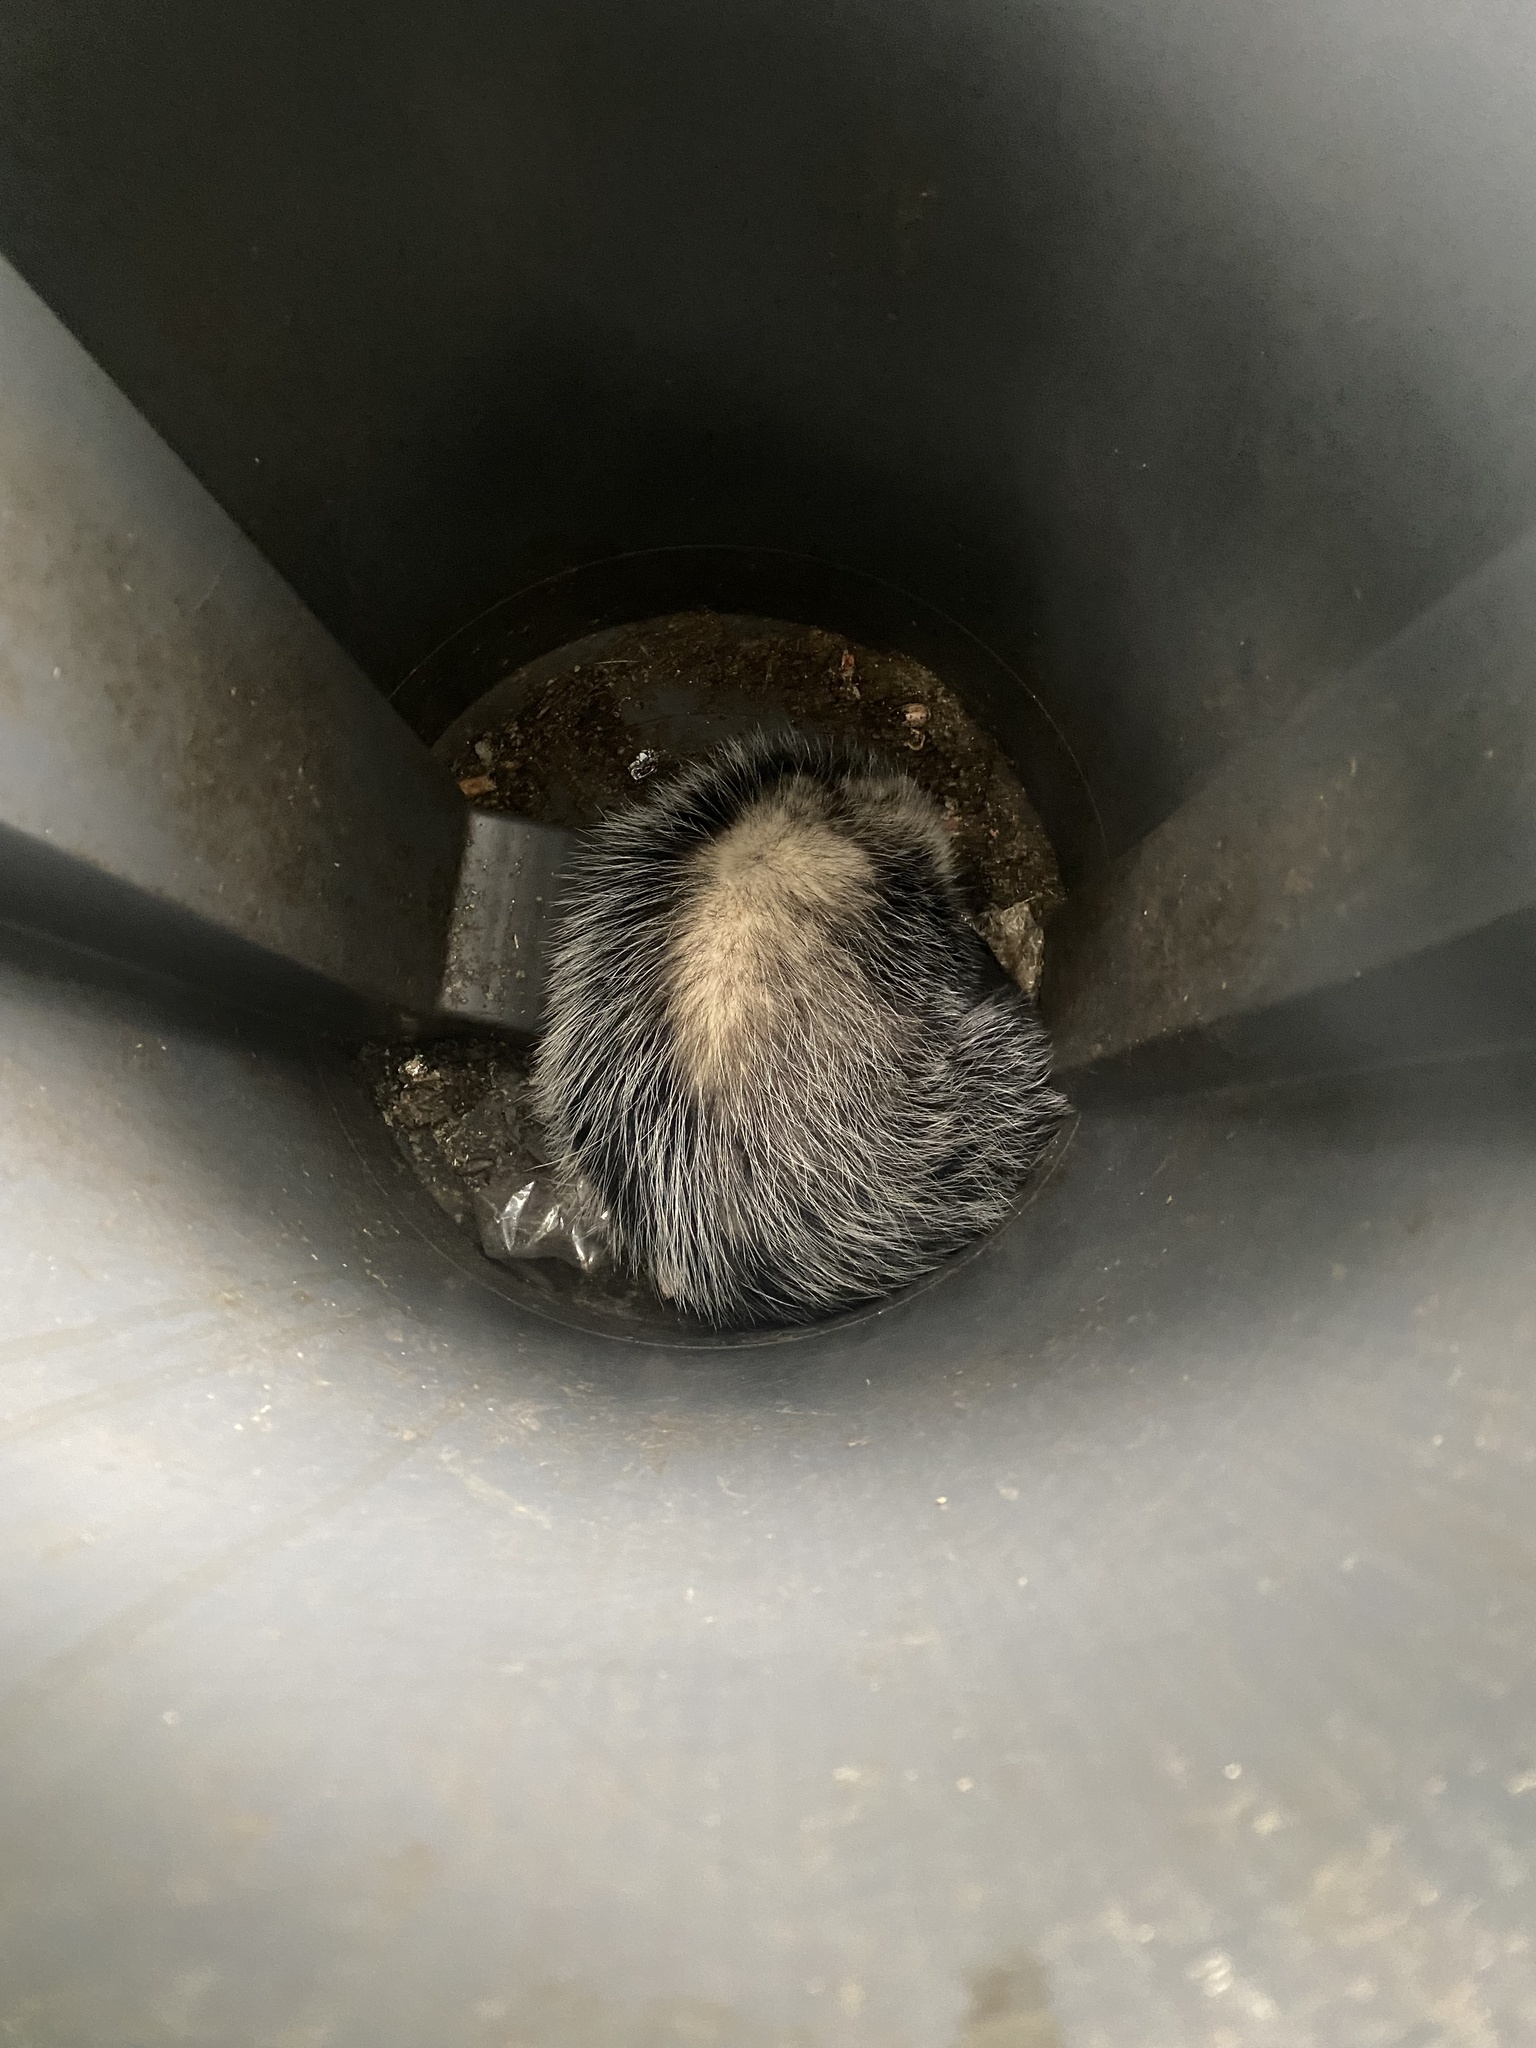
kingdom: Animalia
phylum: Chordata
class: Mammalia
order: Didelphimorphia
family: Didelphidae
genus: Didelphis
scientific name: Didelphis albiventris
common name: White-eared opossum
